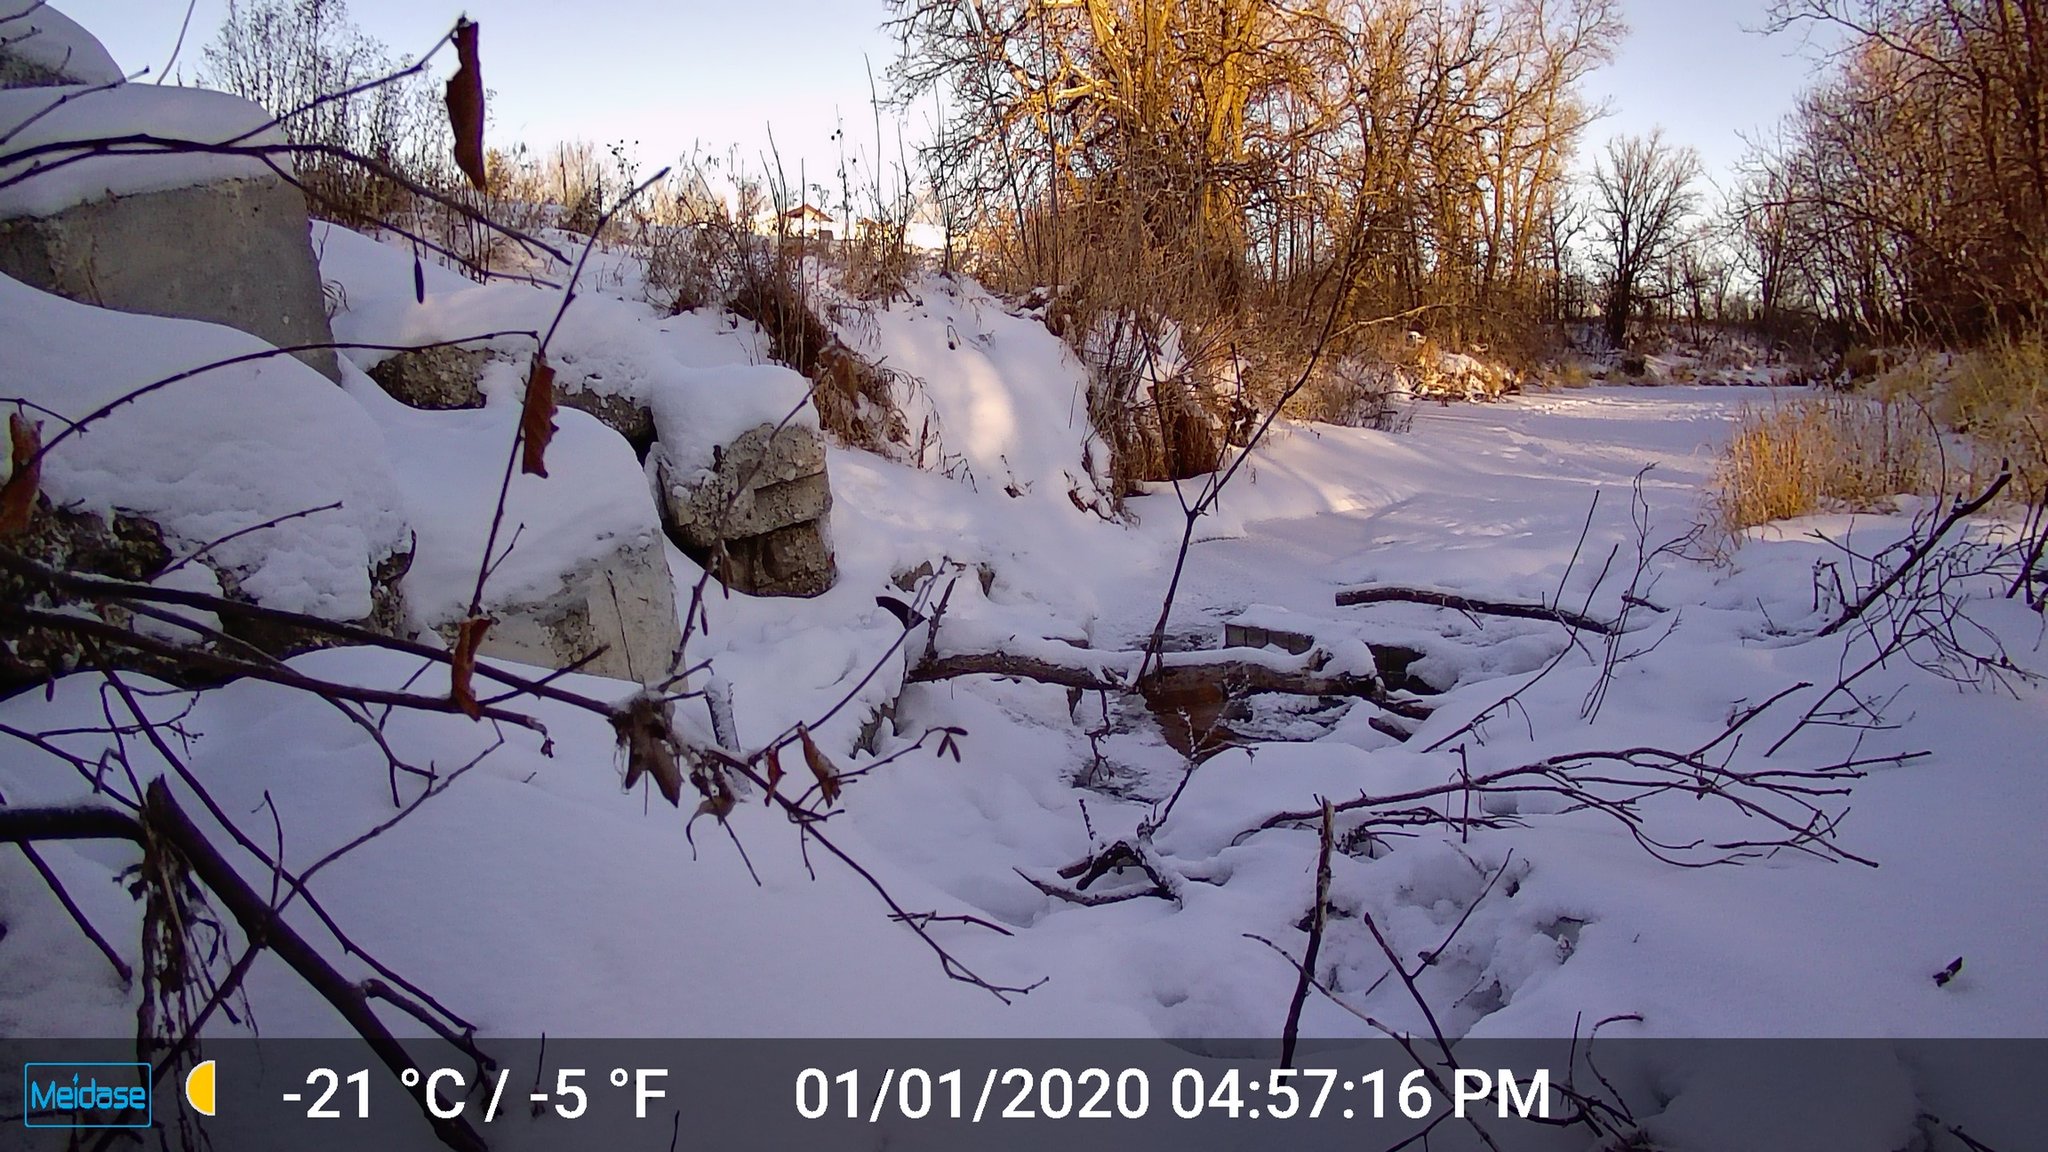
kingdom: Animalia
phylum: Chordata
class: Mammalia
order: Carnivora
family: Mustelidae
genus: Mustela
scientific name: Mustela
